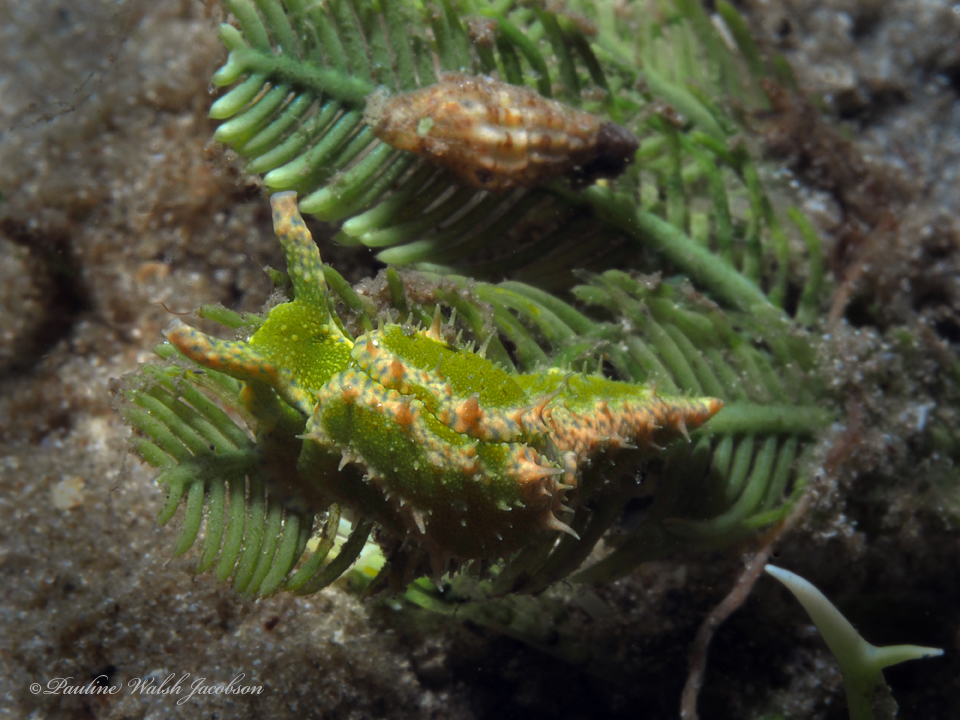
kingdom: Animalia
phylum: Mollusca
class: Gastropoda
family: Oxynoidae
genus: Oxynoe
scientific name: Oxynoe antillarum
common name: Antilles oxynoe
